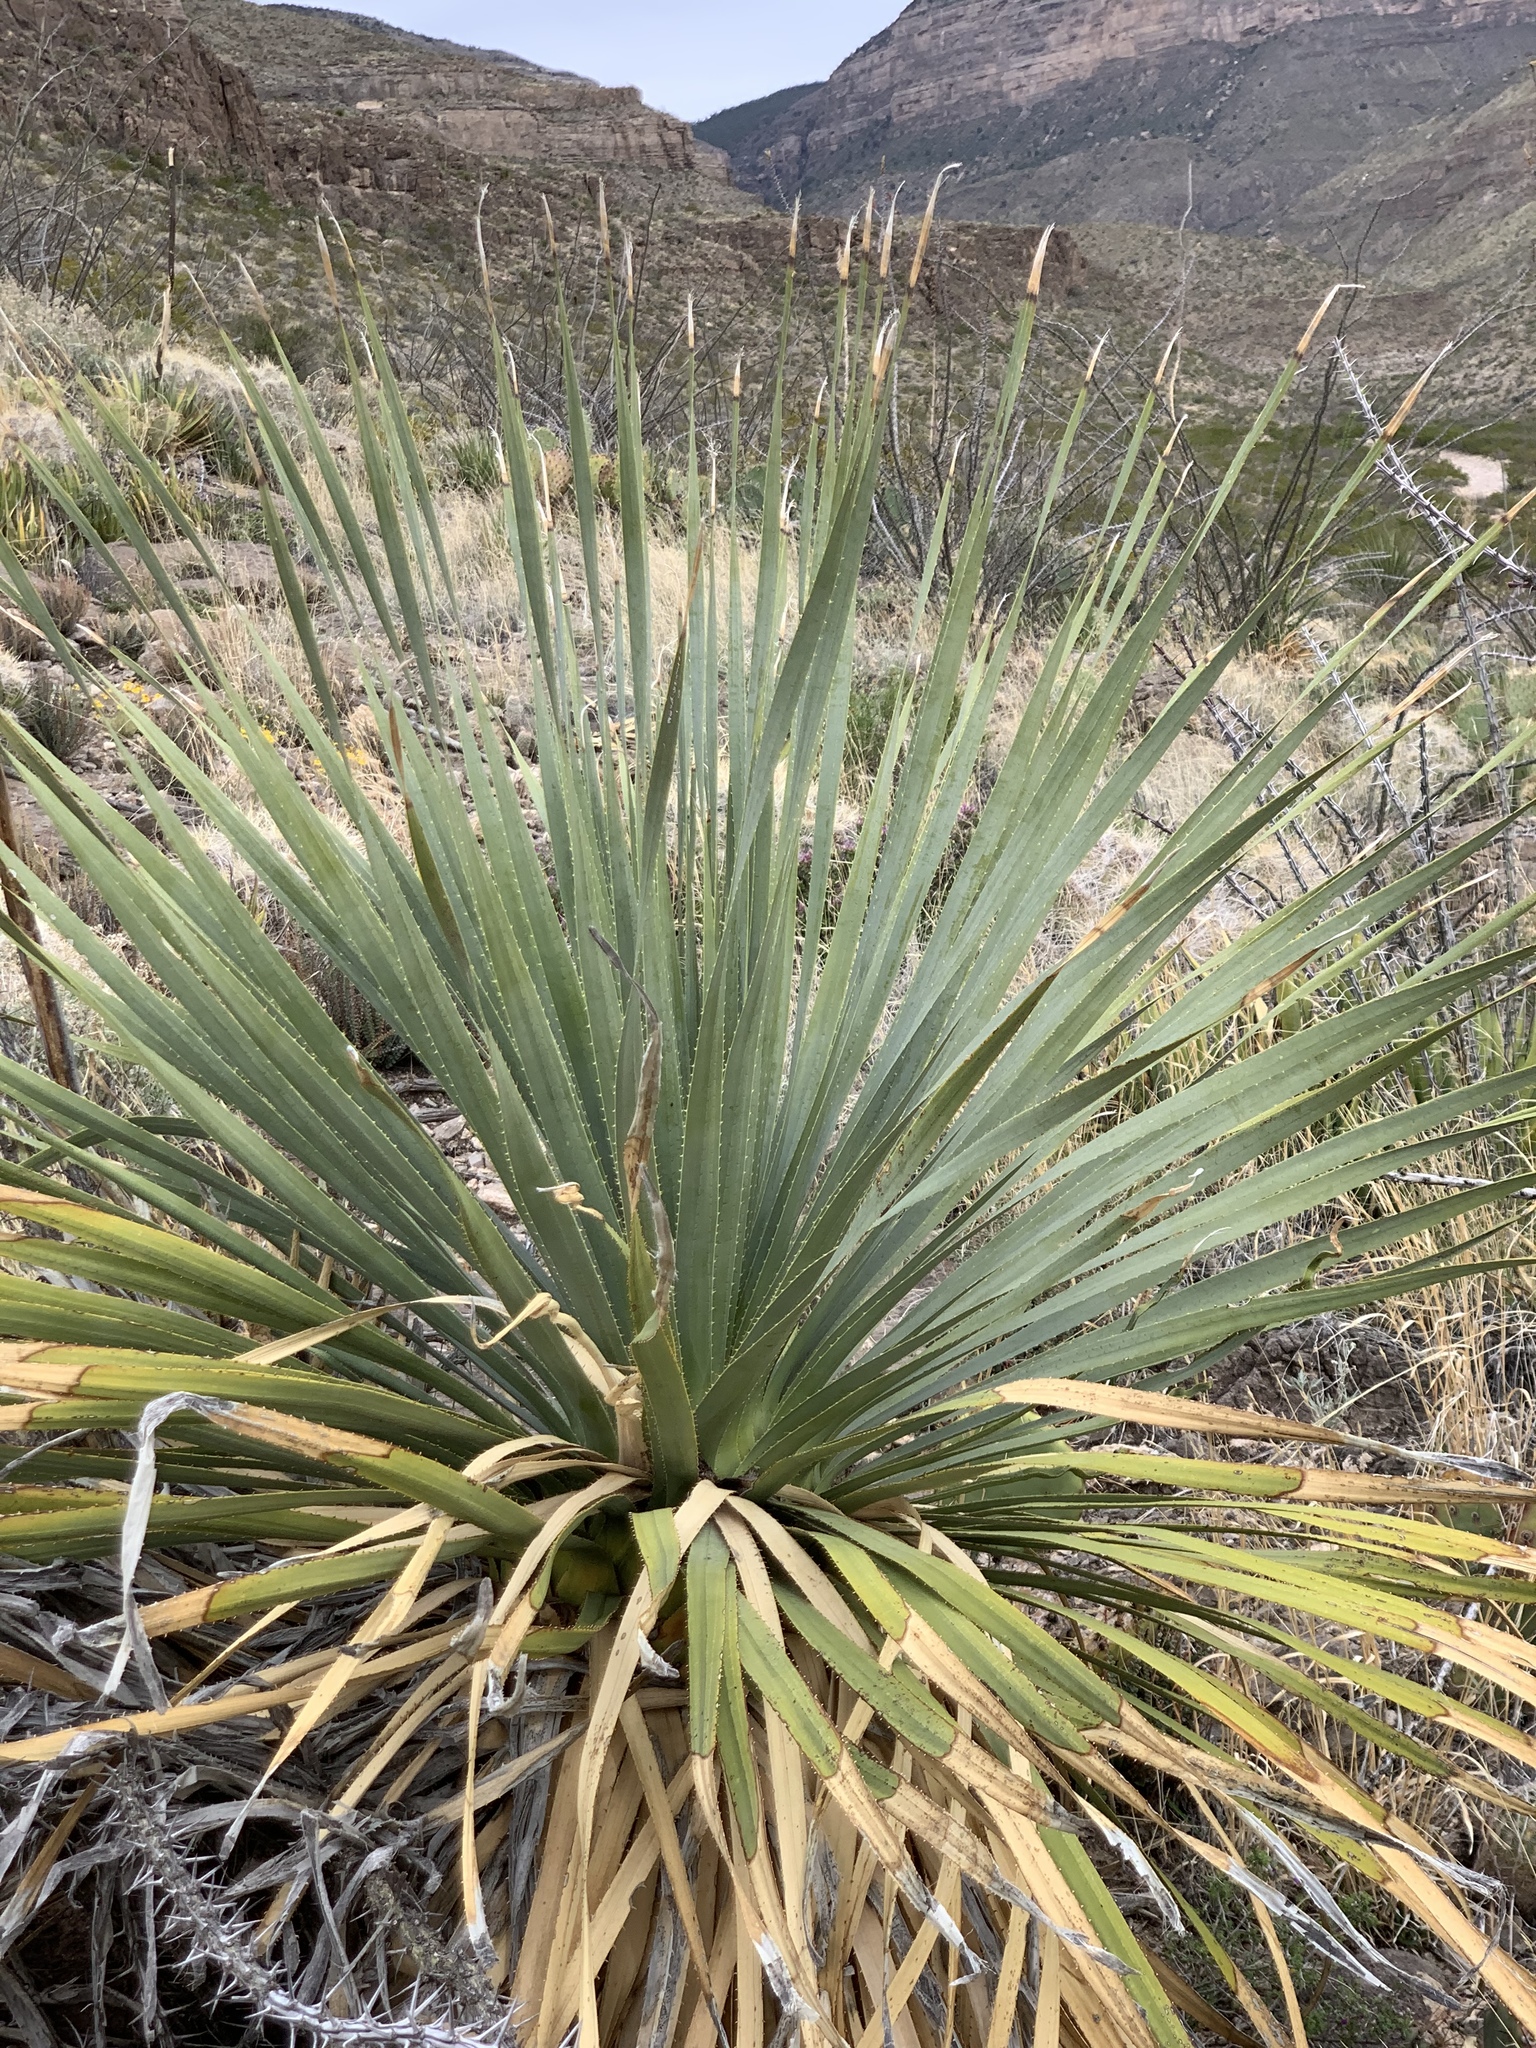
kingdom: Plantae
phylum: Tracheophyta
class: Liliopsida
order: Asparagales
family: Asparagaceae
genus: Dasylirion
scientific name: Dasylirion wheeleri
